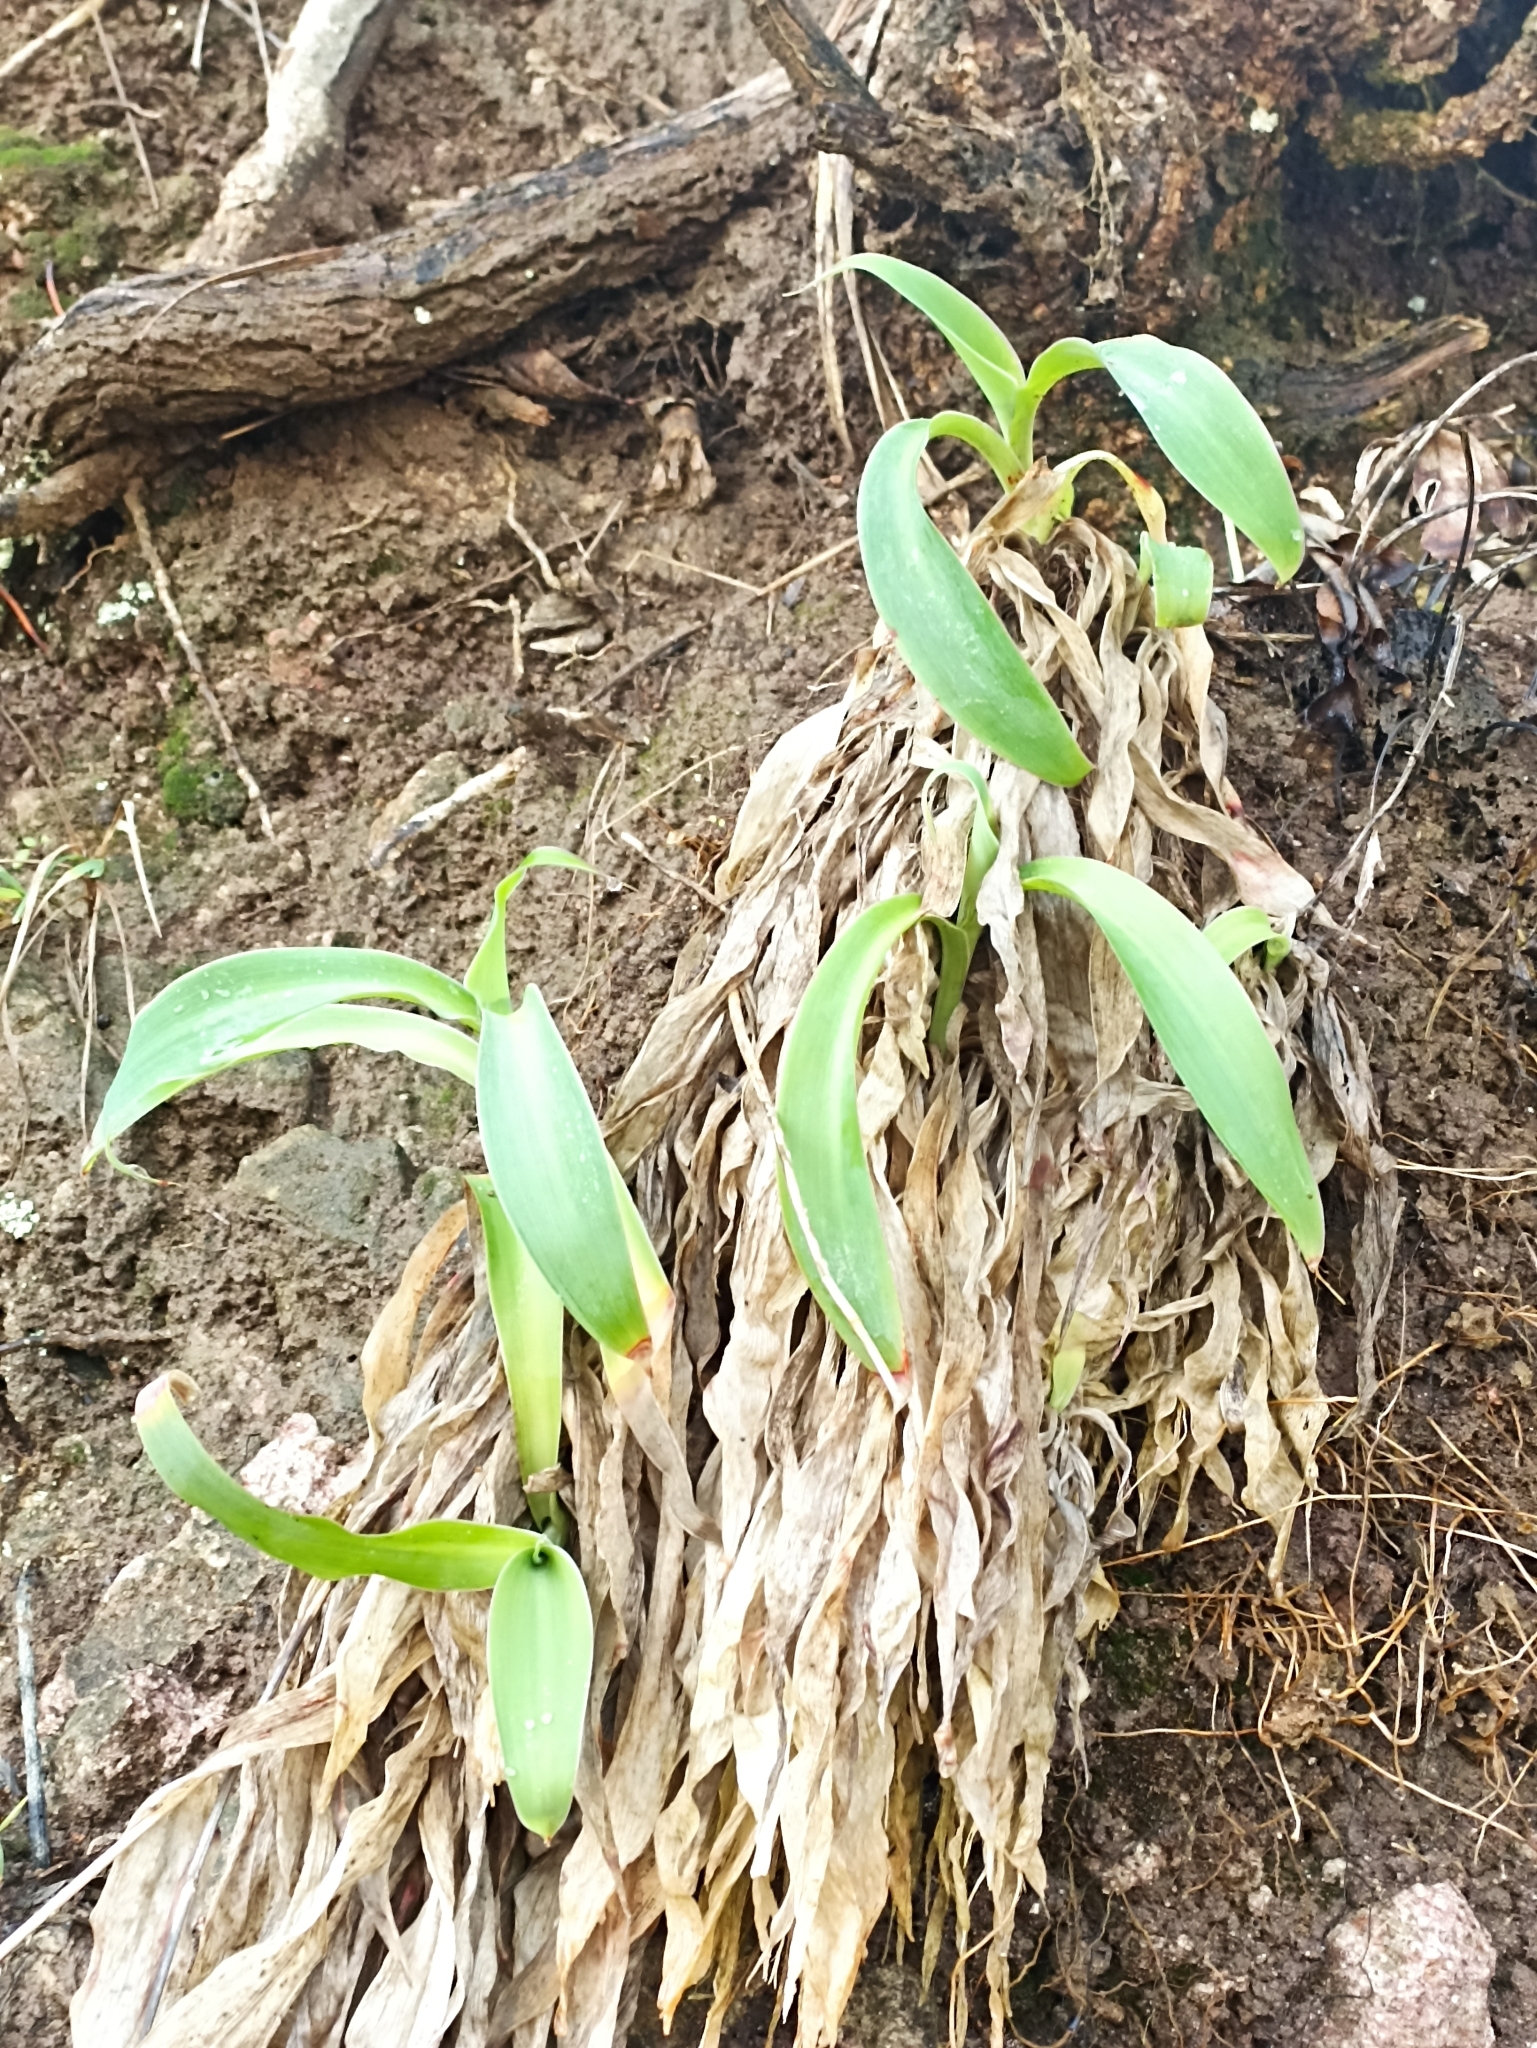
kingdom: Plantae
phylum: Tracheophyta
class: Liliopsida
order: Asparagales
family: Asparagaceae
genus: Arthropodium
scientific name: Arthropodium cirratum
